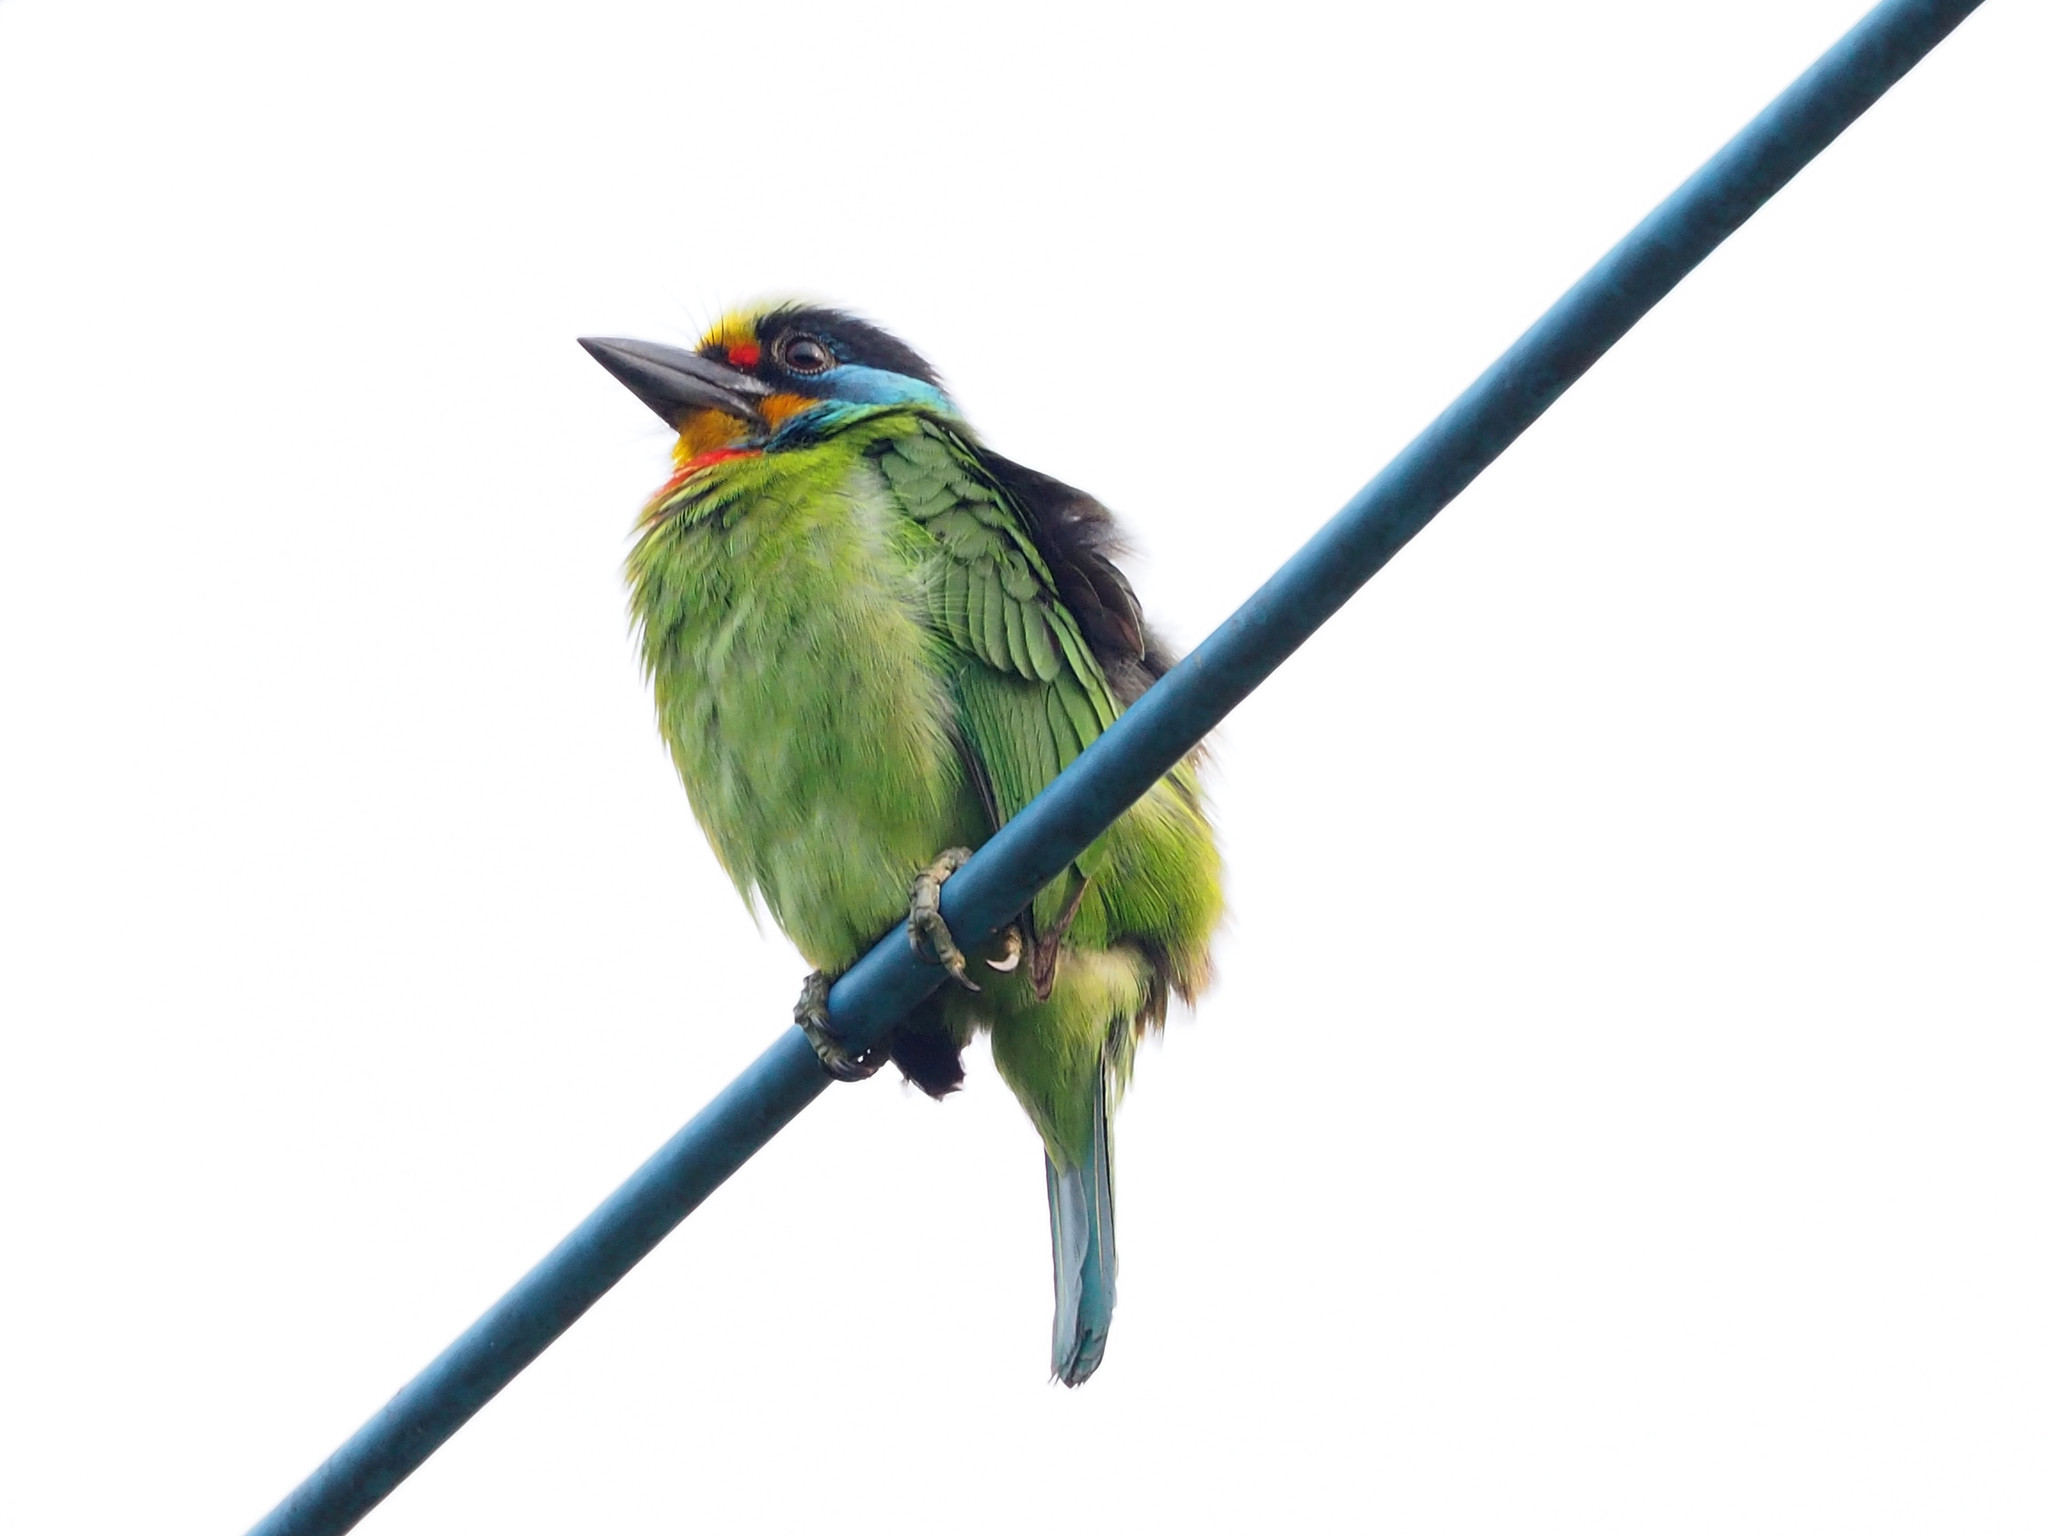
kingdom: Animalia
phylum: Chordata
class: Aves
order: Piciformes
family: Megalaimidae
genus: Psilopogon
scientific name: Psilopogon nuchalis
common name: Taiwan barbet
